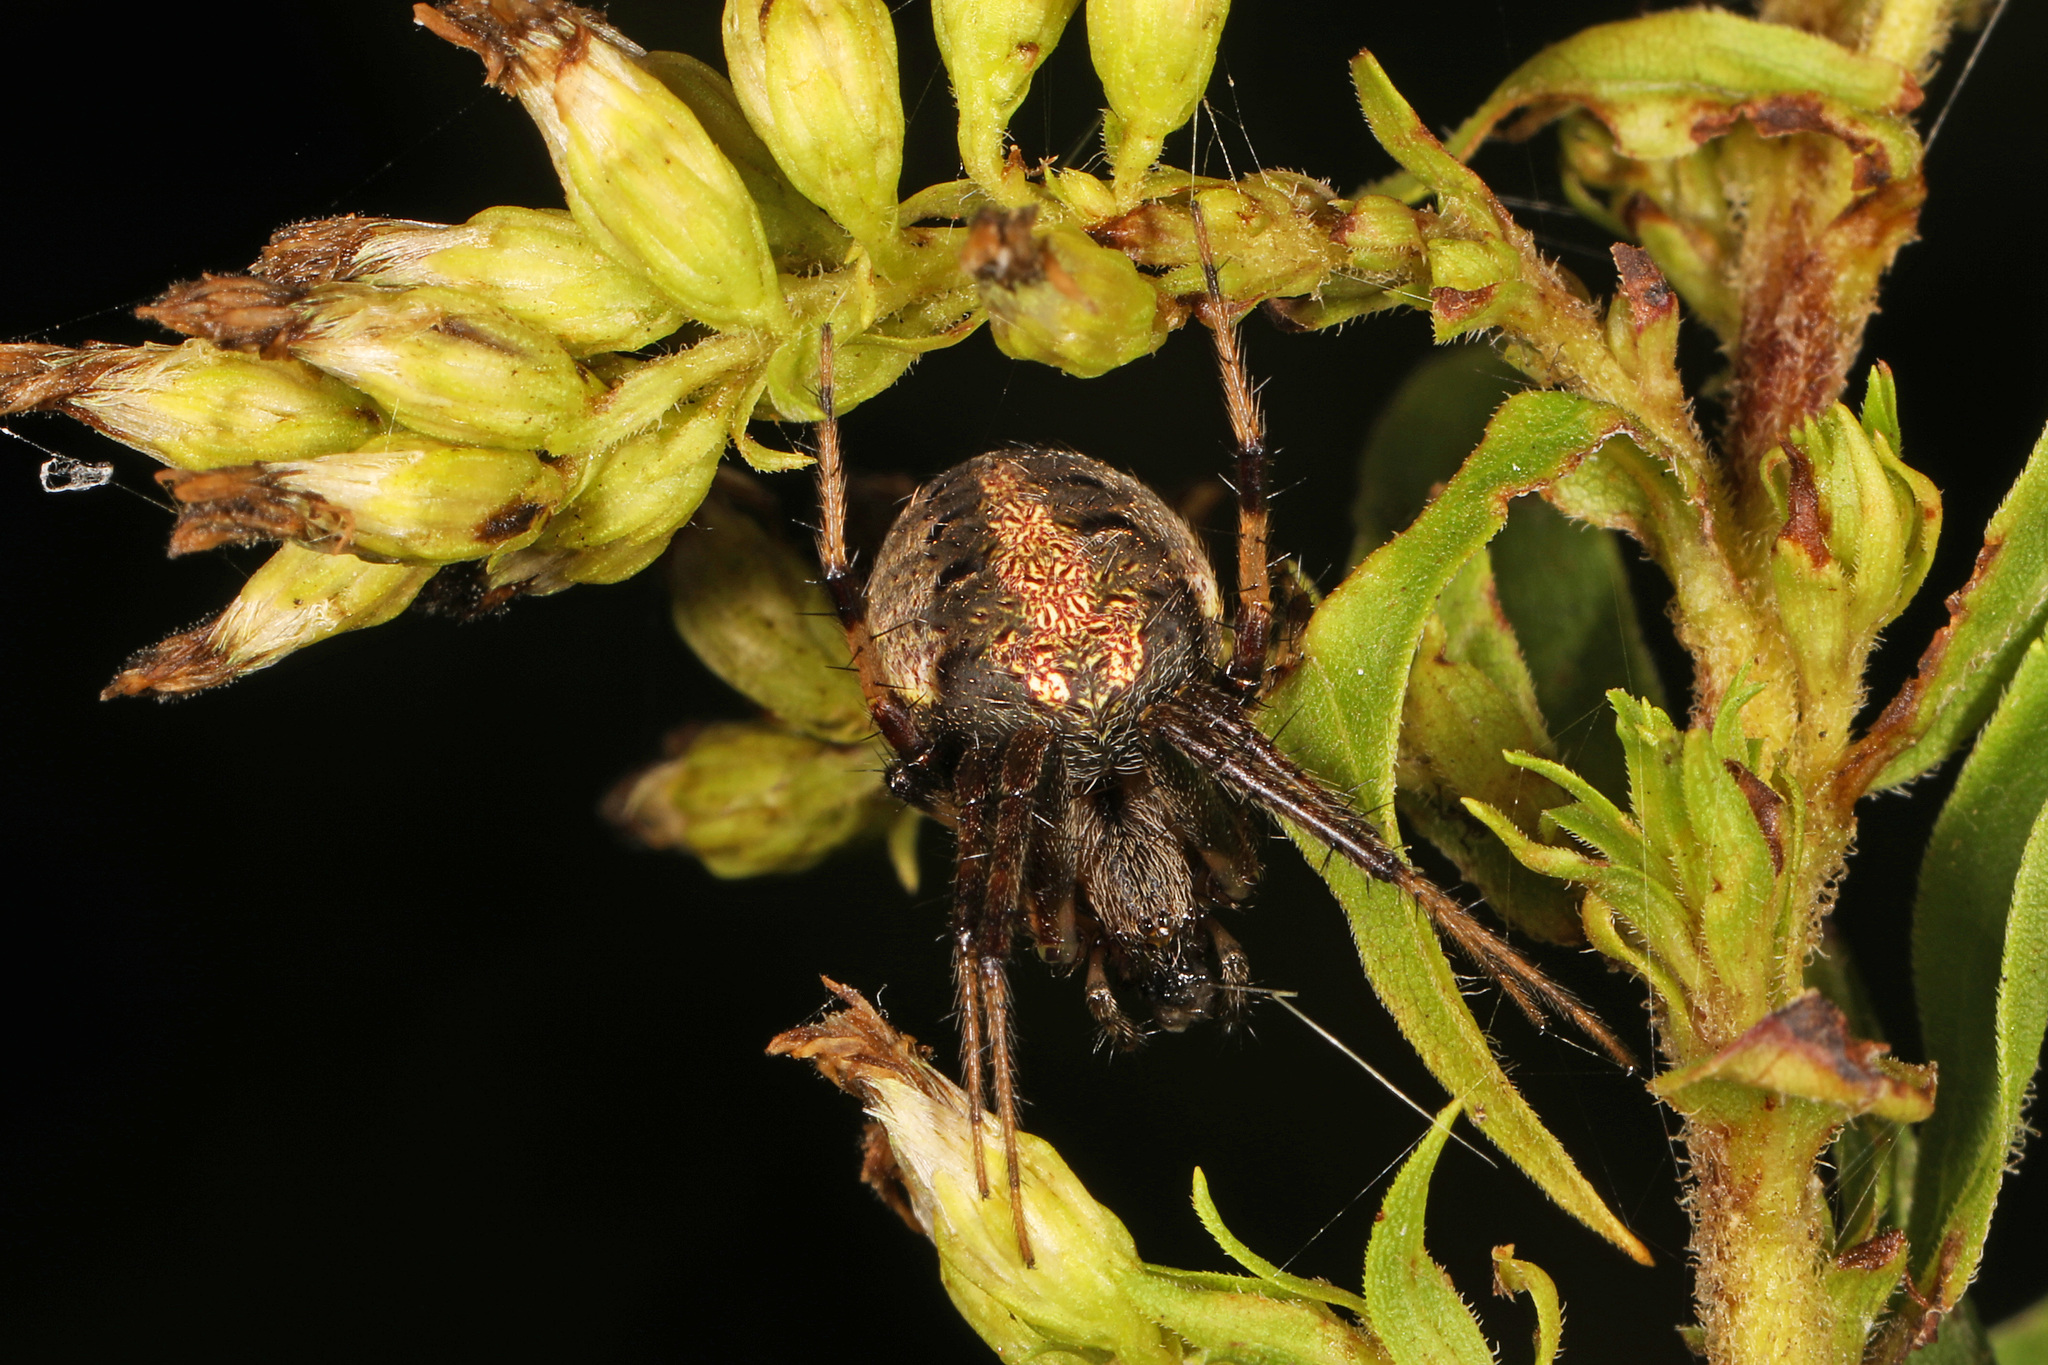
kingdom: Animalia
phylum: Arthropoda
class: Arachnida
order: Araneae
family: Araneidae
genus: Neoscona
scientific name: Neoscona arabesca
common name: Orb weavers
